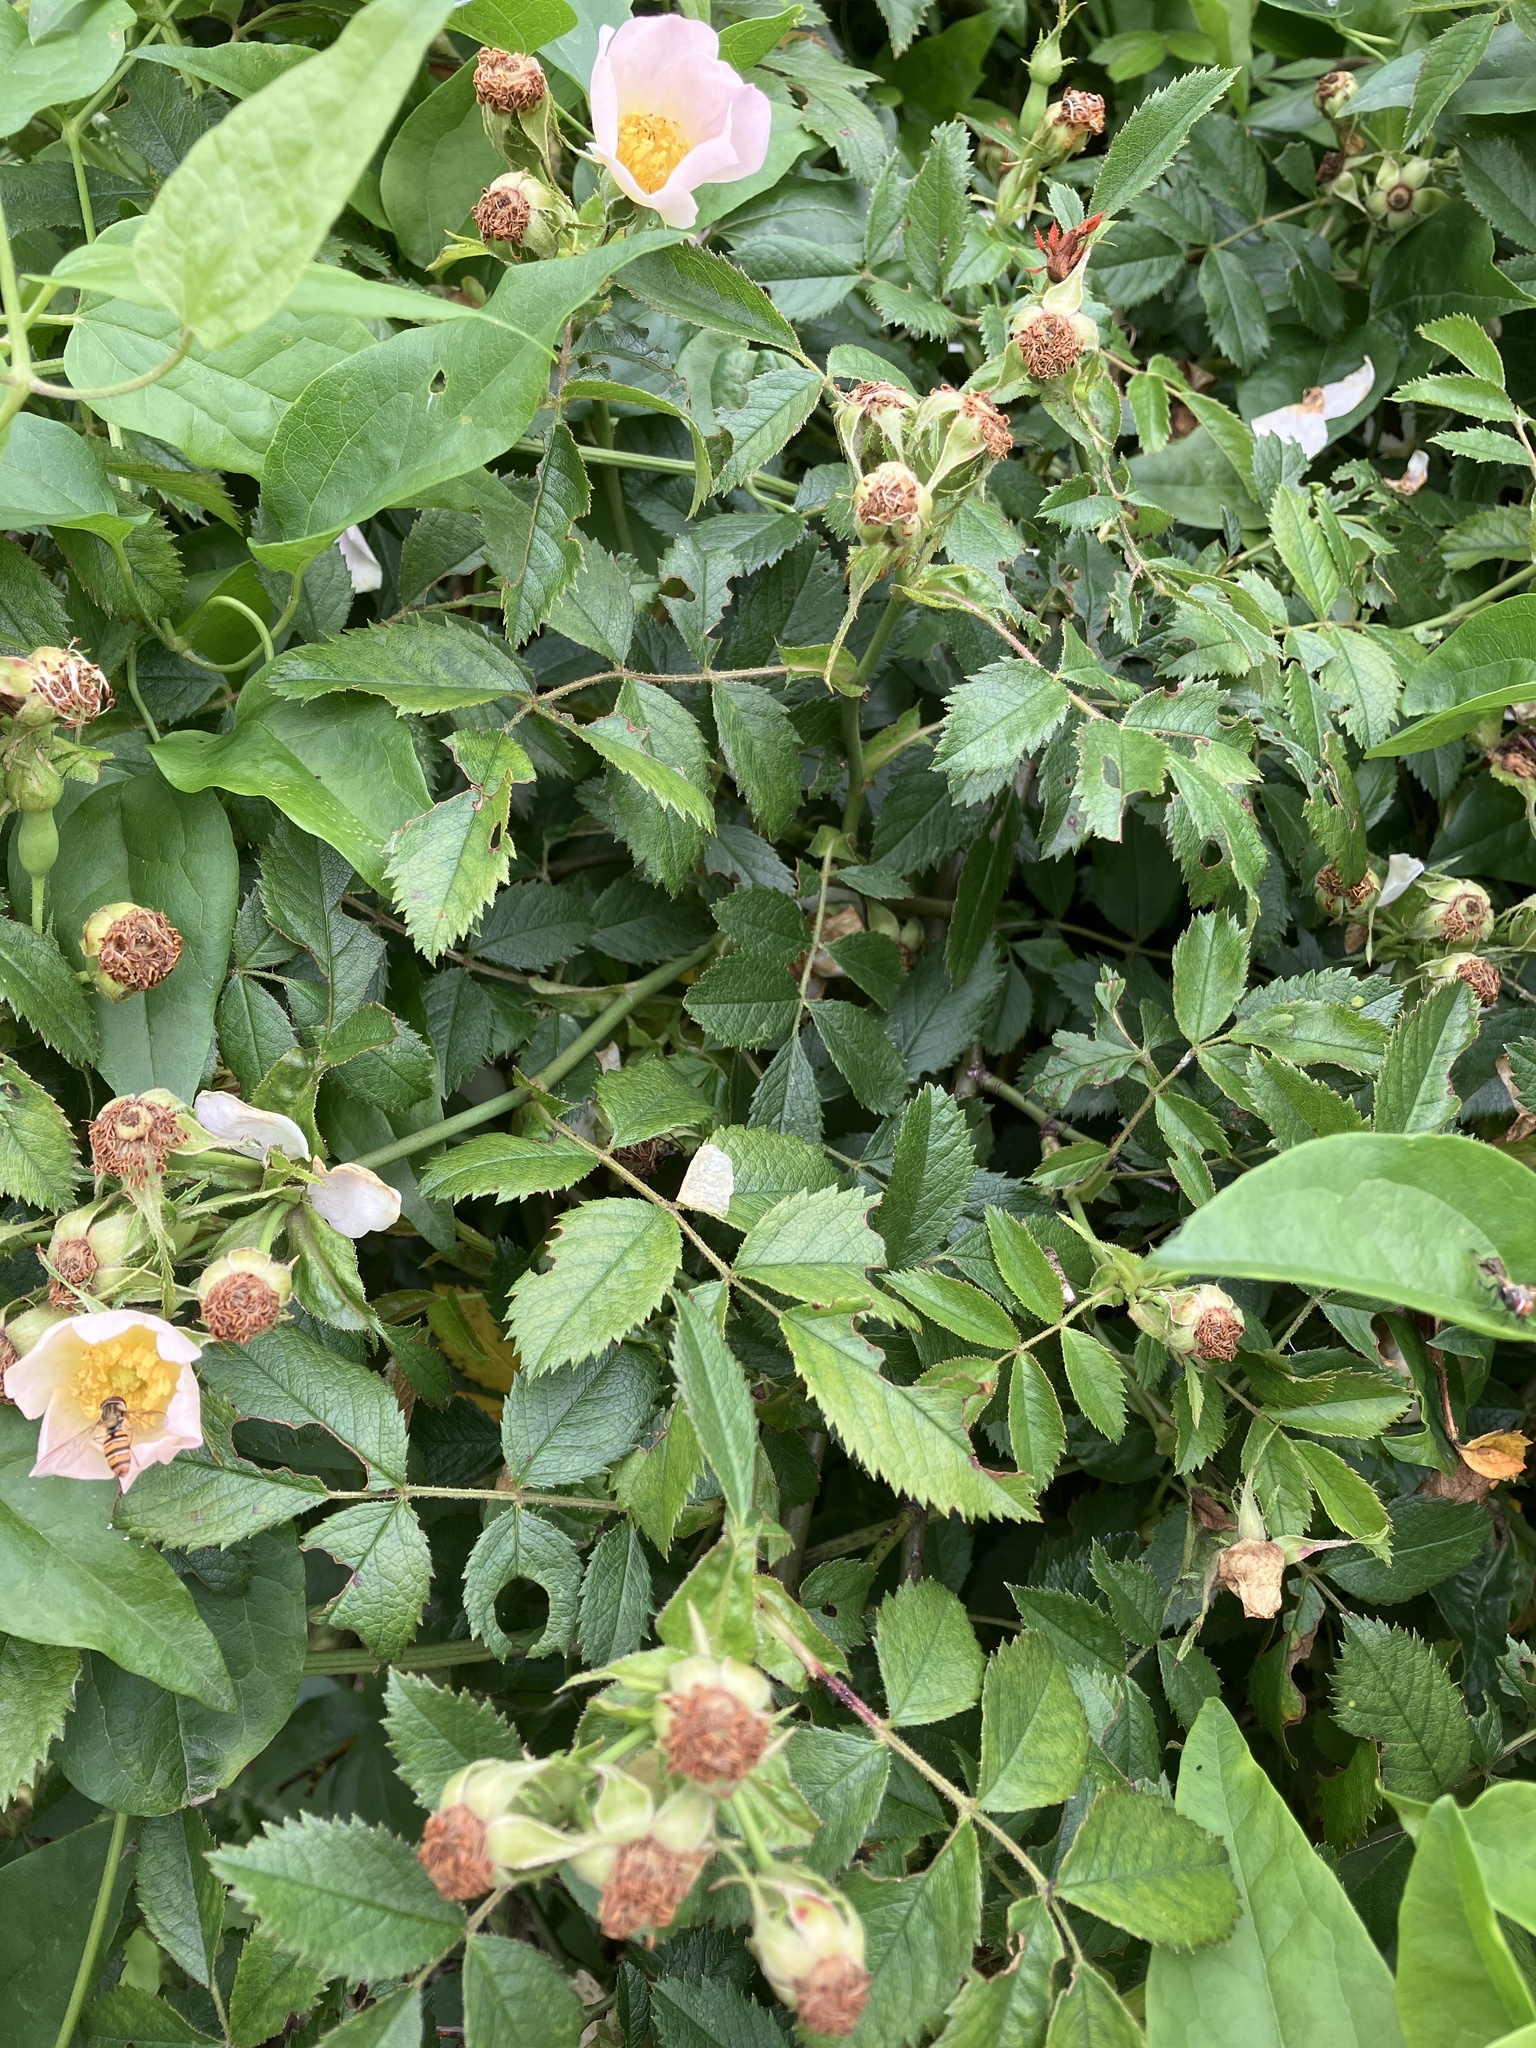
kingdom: Plantae
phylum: Tracheophyta
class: Magnoliopsida
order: Rosales
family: Rosaceae
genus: Rosa
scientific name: Rosa agrestis
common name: Fieldbriar
